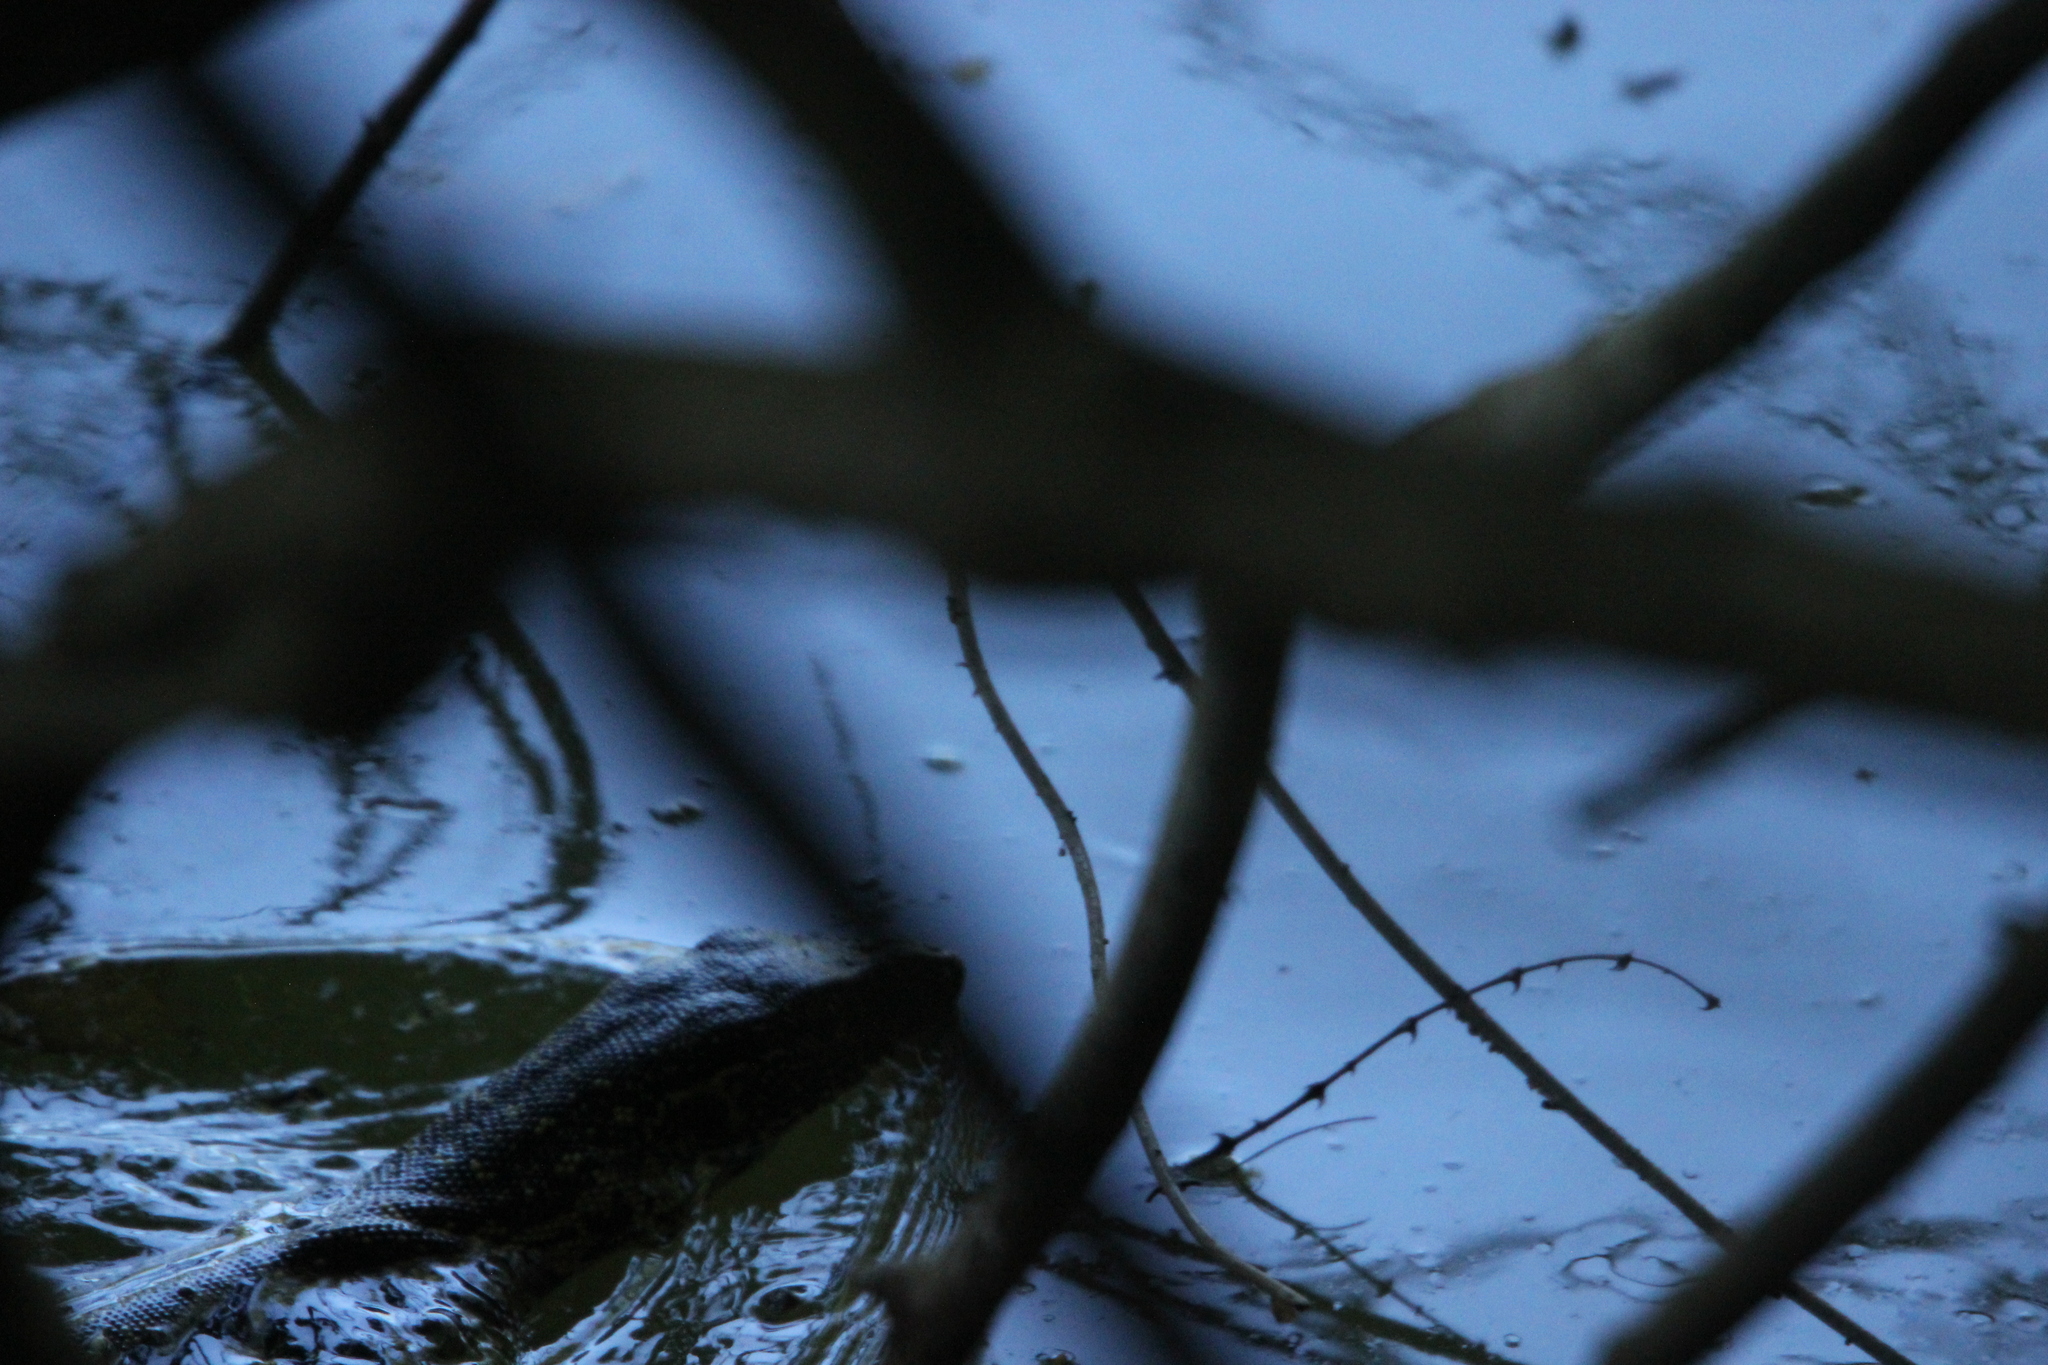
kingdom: Animalia
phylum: Chordata
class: Squamata
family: Varanidae
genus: Varanus
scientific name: Varanus niloticus
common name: Nile monitor
